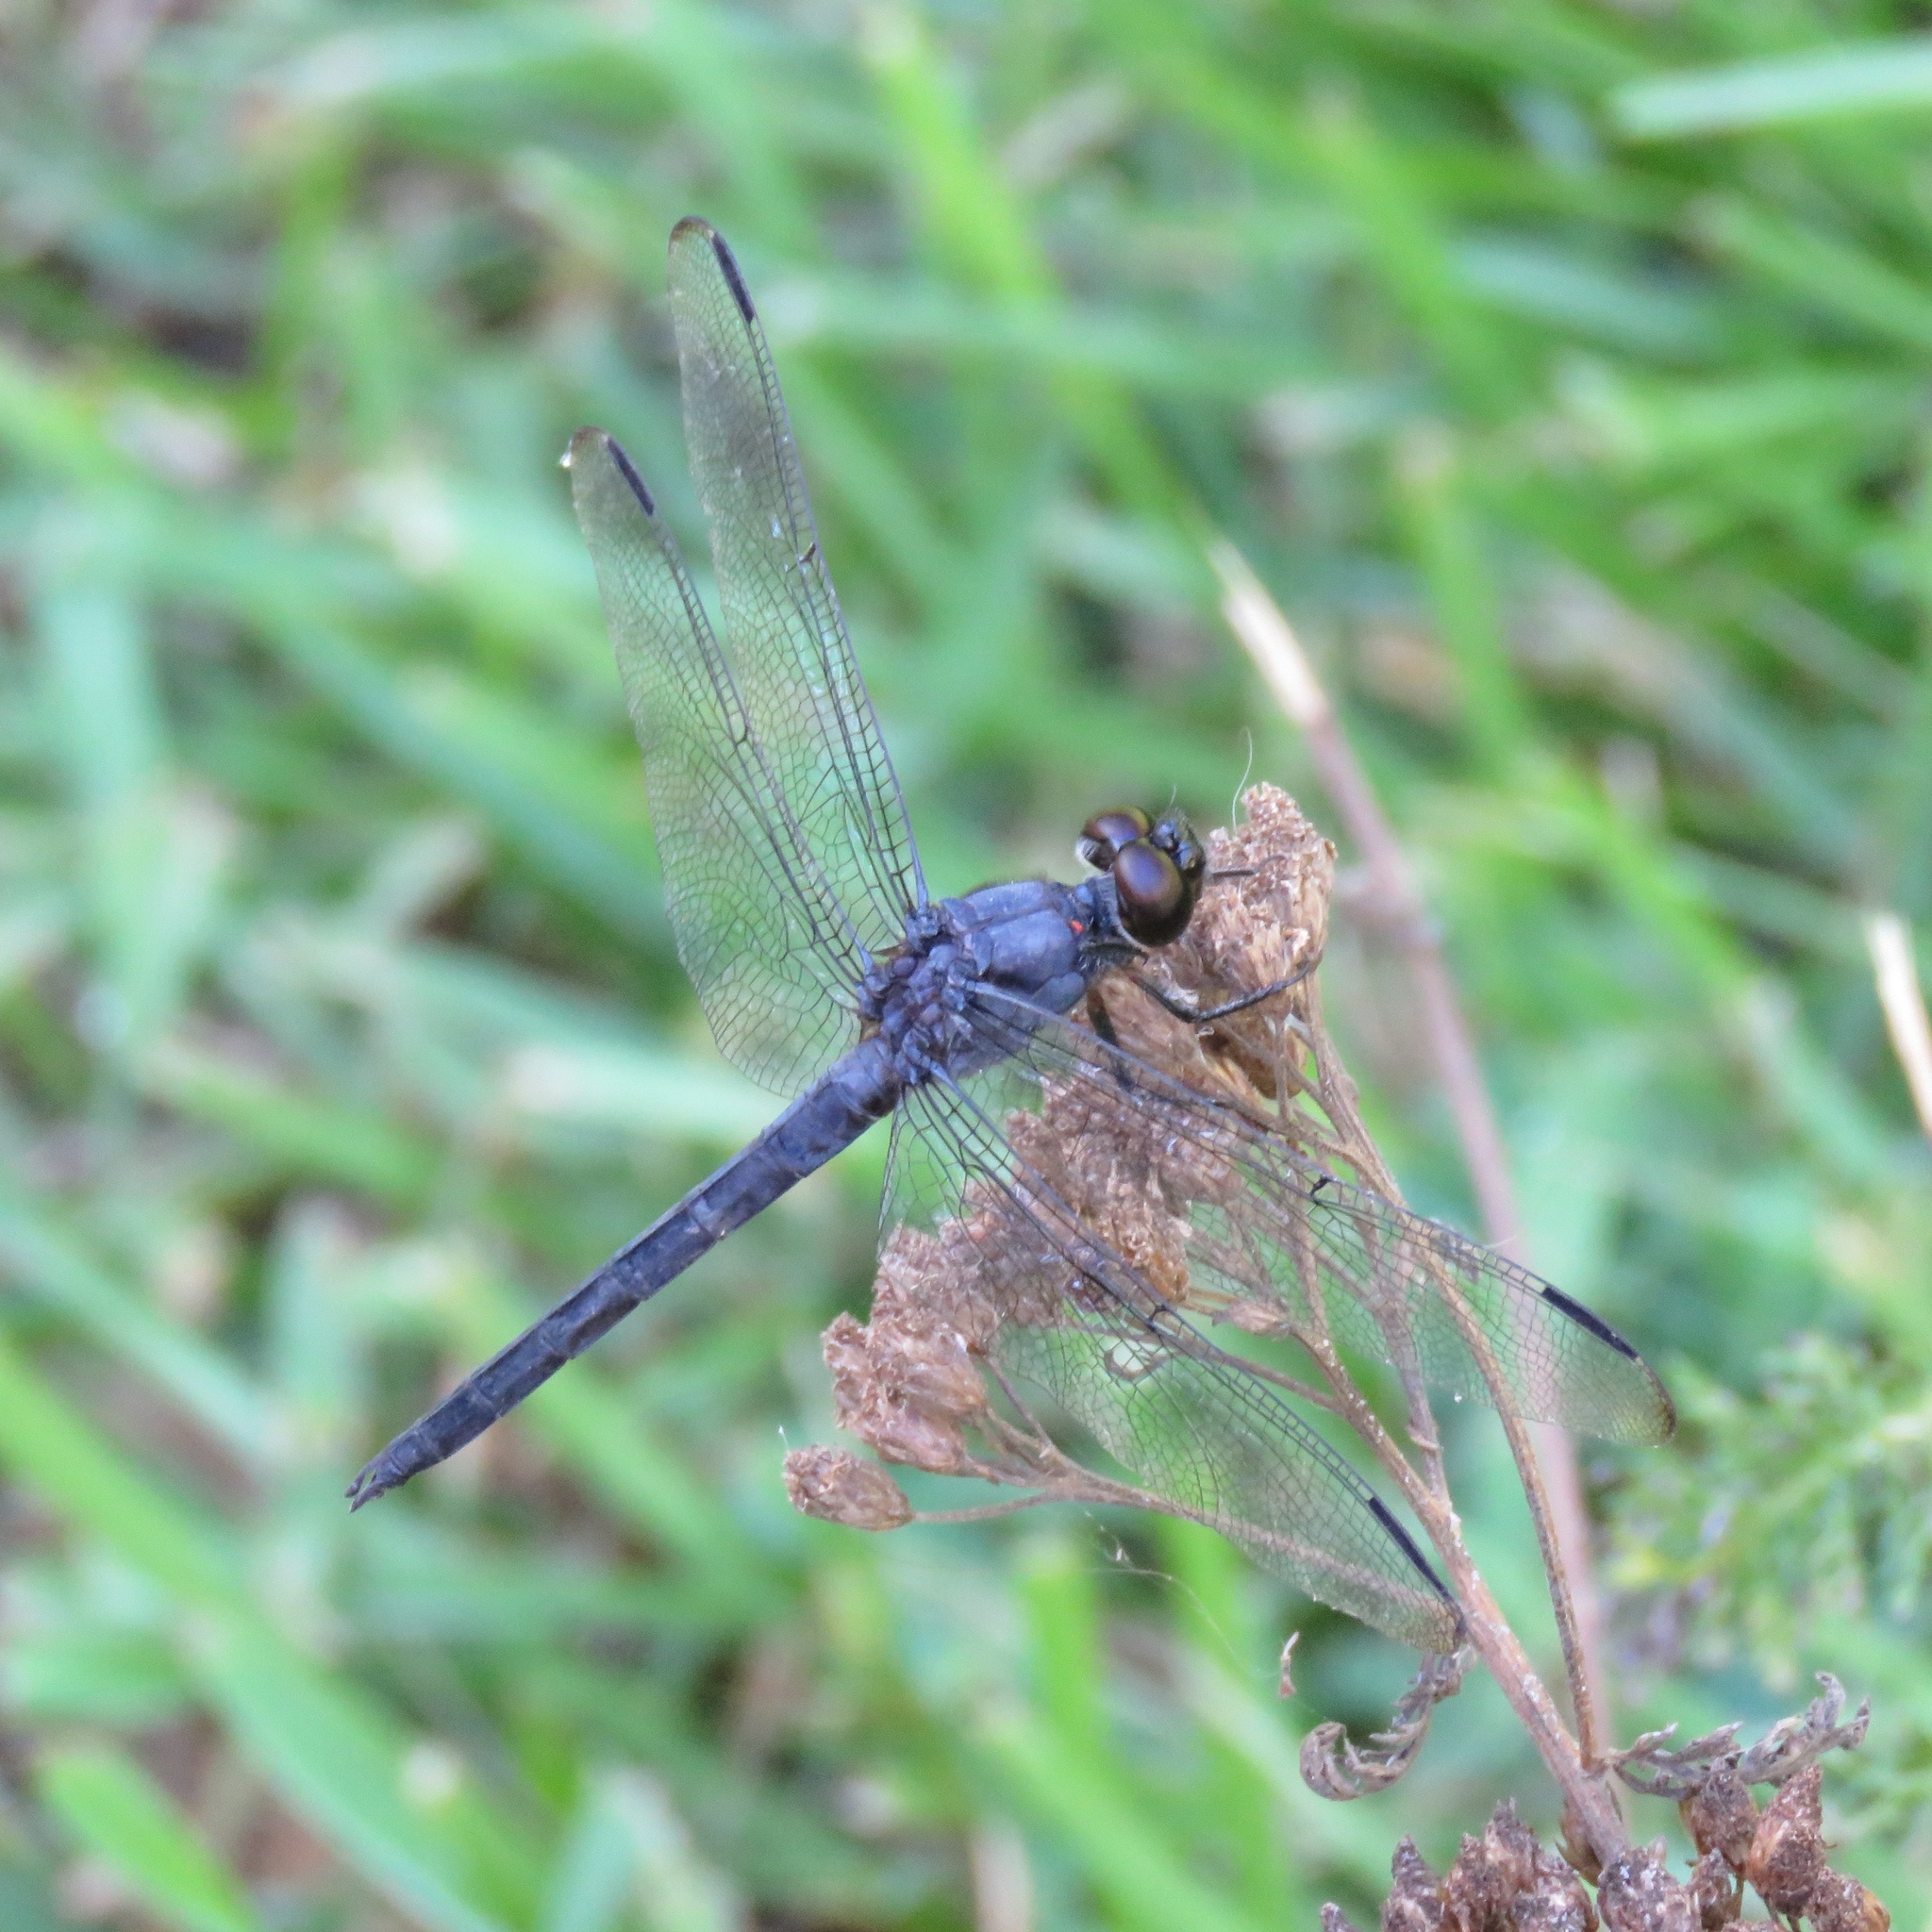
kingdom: Animalia
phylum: Arthropoda
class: Insecta
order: Odonata
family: Libellulidae
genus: Libellula
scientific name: Libellula incesta
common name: Slaty skimmer
